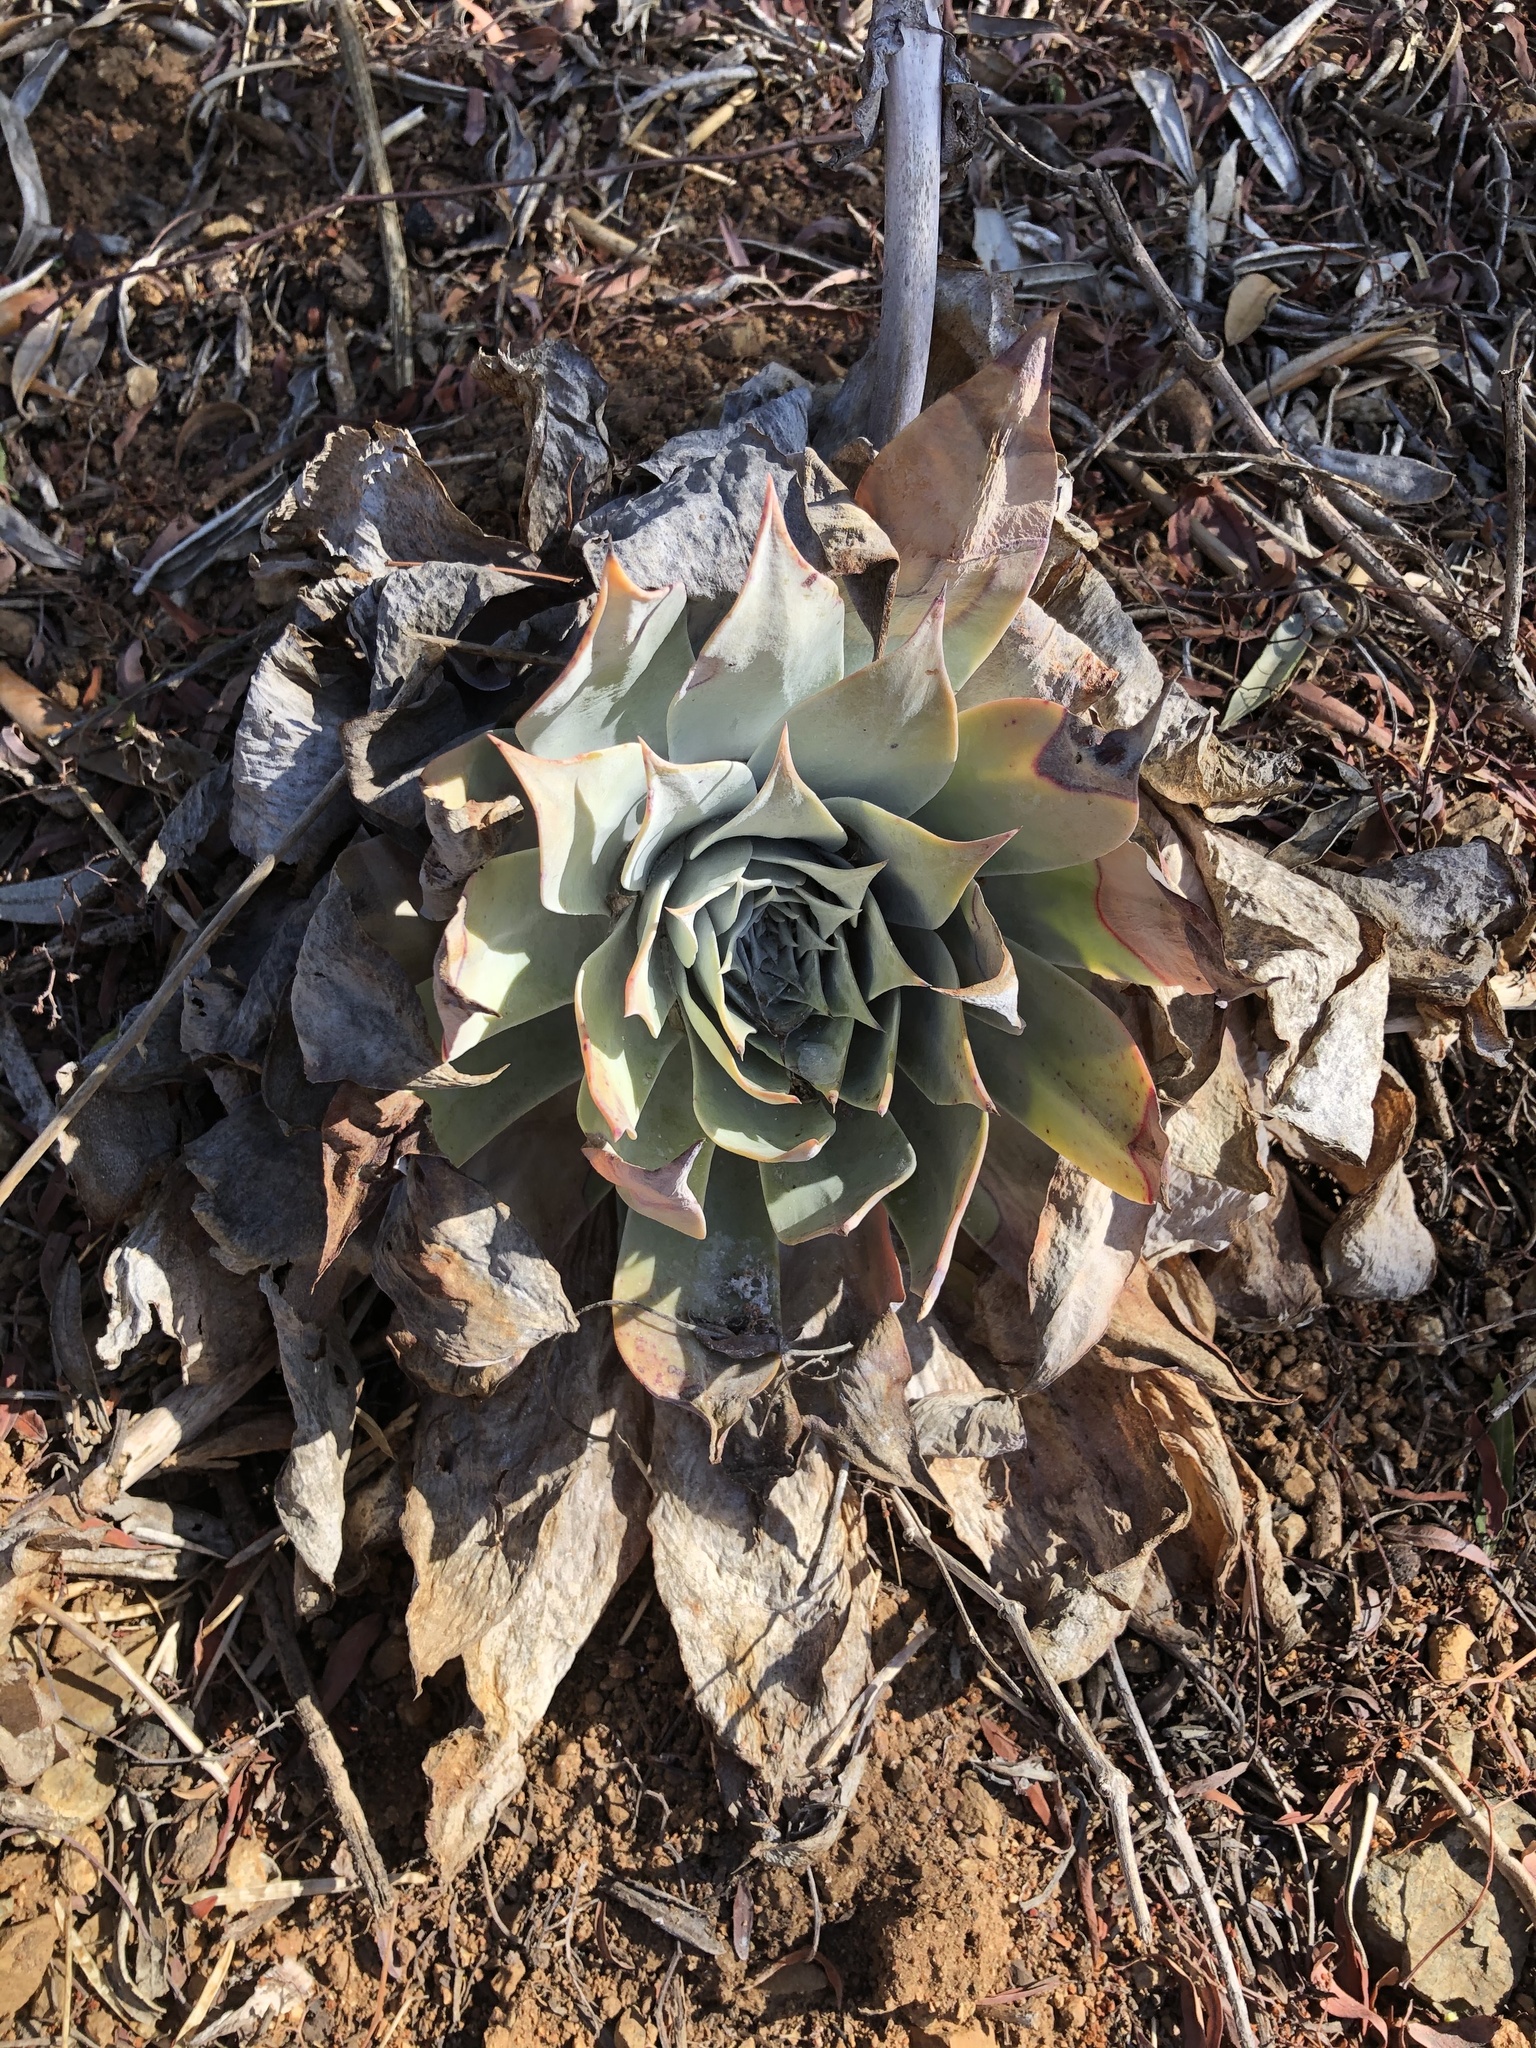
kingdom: Plantae
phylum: Tracheophyta
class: Magnoliopsida
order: Saxifragales
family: Crassulaceae
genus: Dudleya
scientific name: Dudleya pulverulenta
